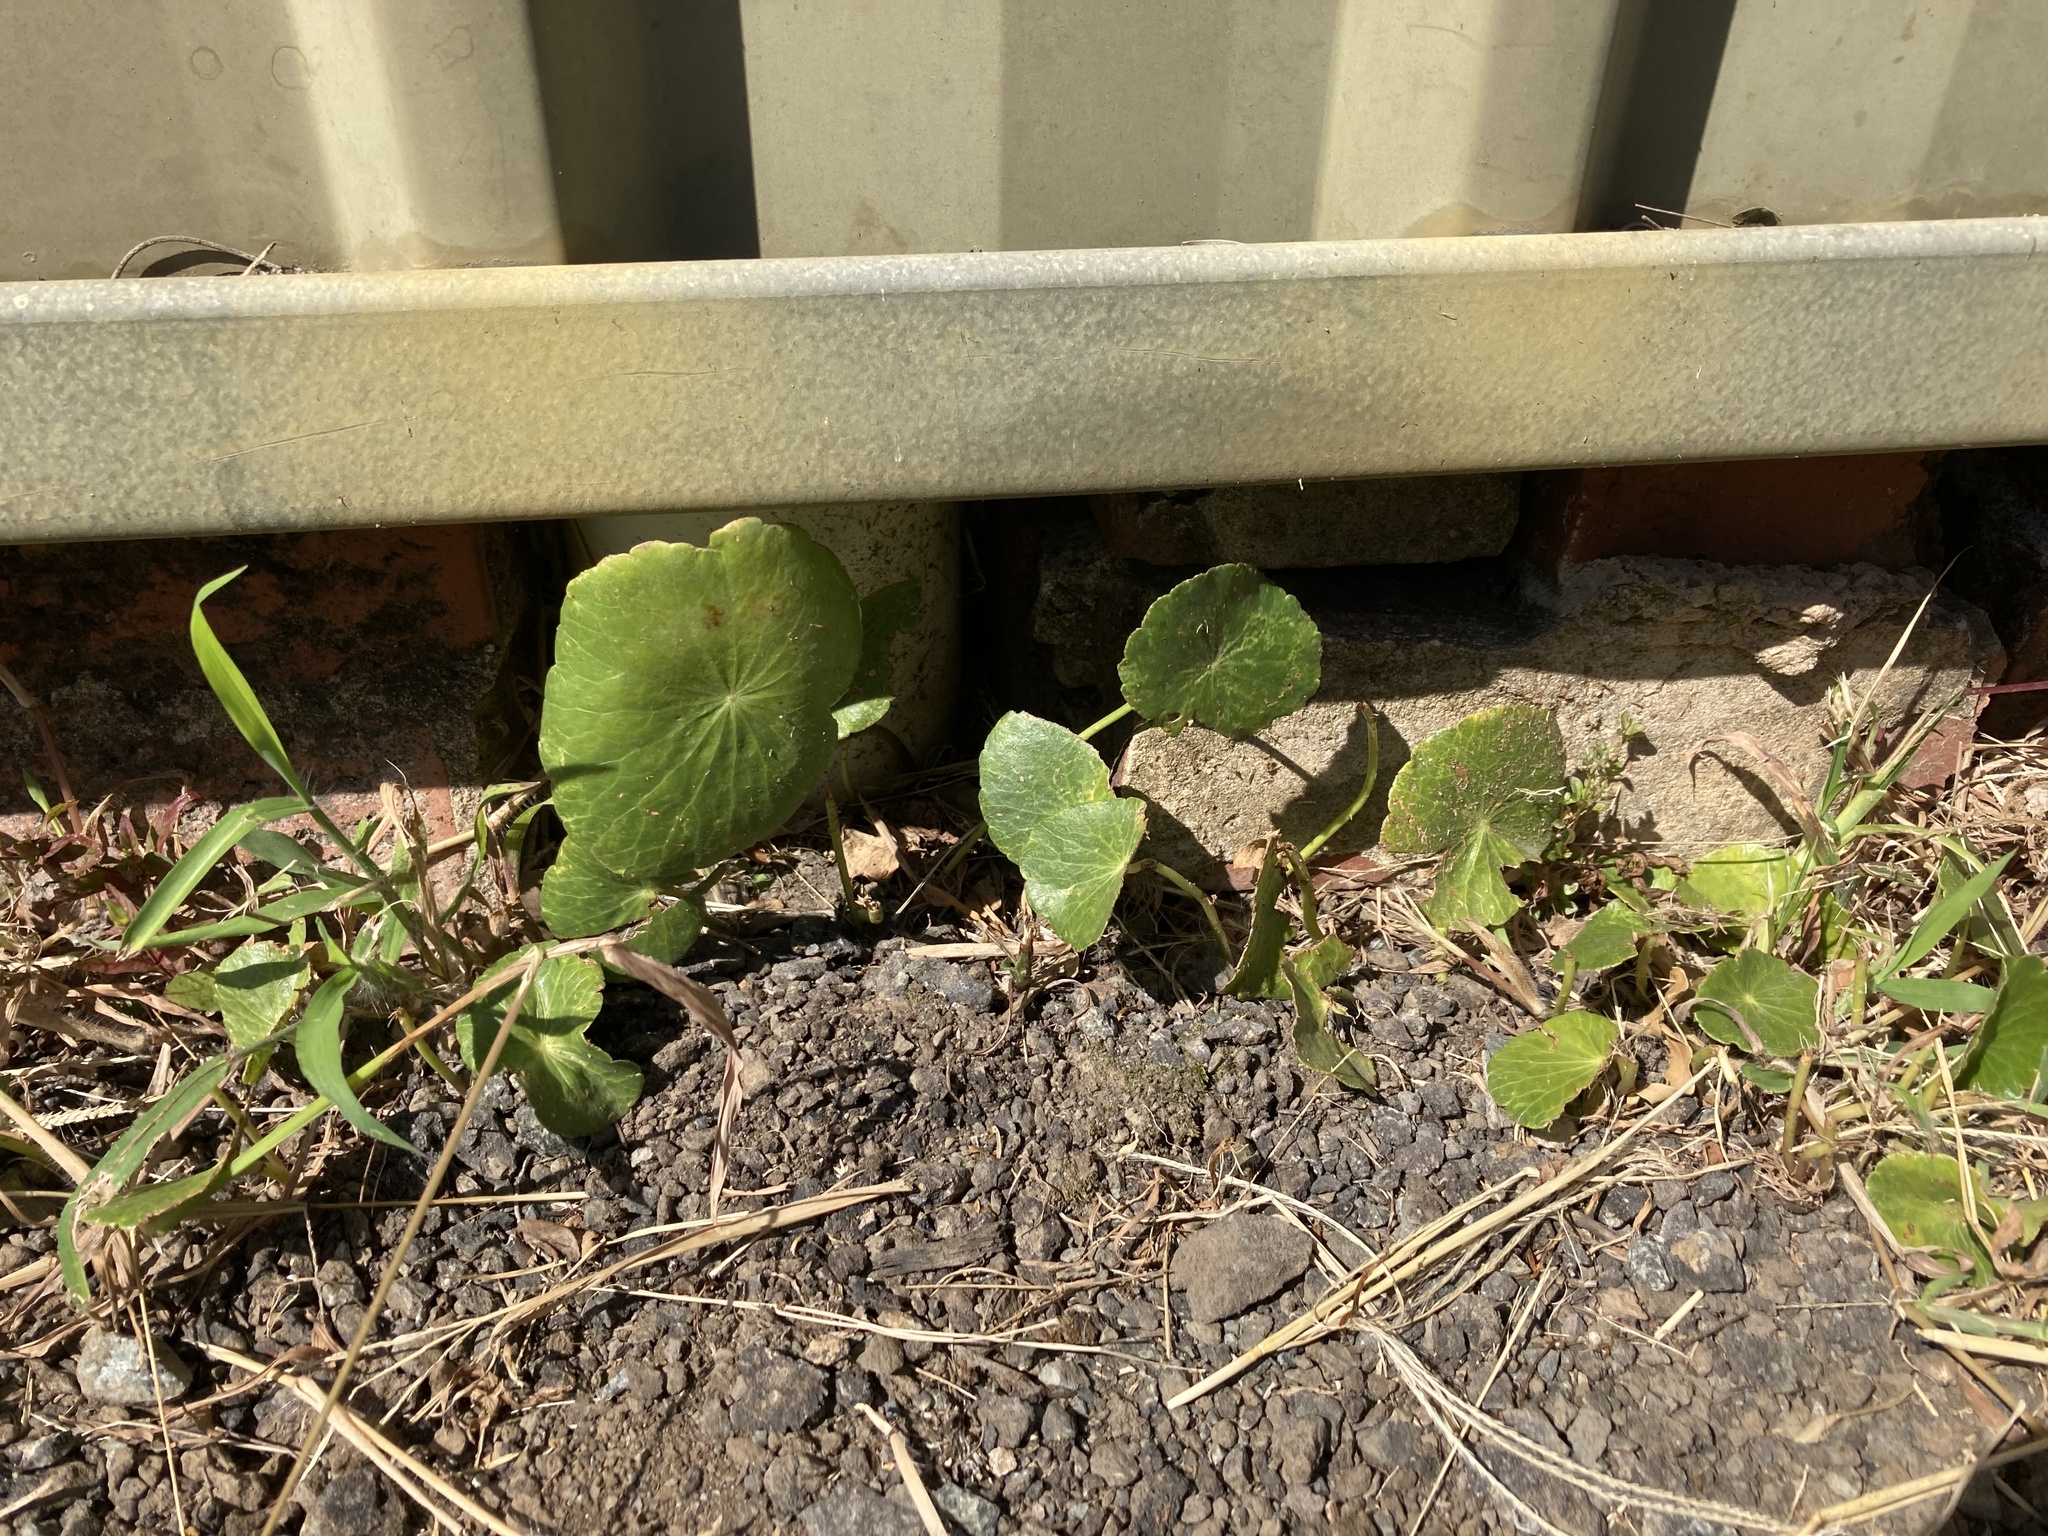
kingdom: Plantae
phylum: Tracheophyta
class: Magnoliopsida
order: Apiales
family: Araliaceae
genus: Hydrocotyle
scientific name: Hydrocotyle bonariensis
